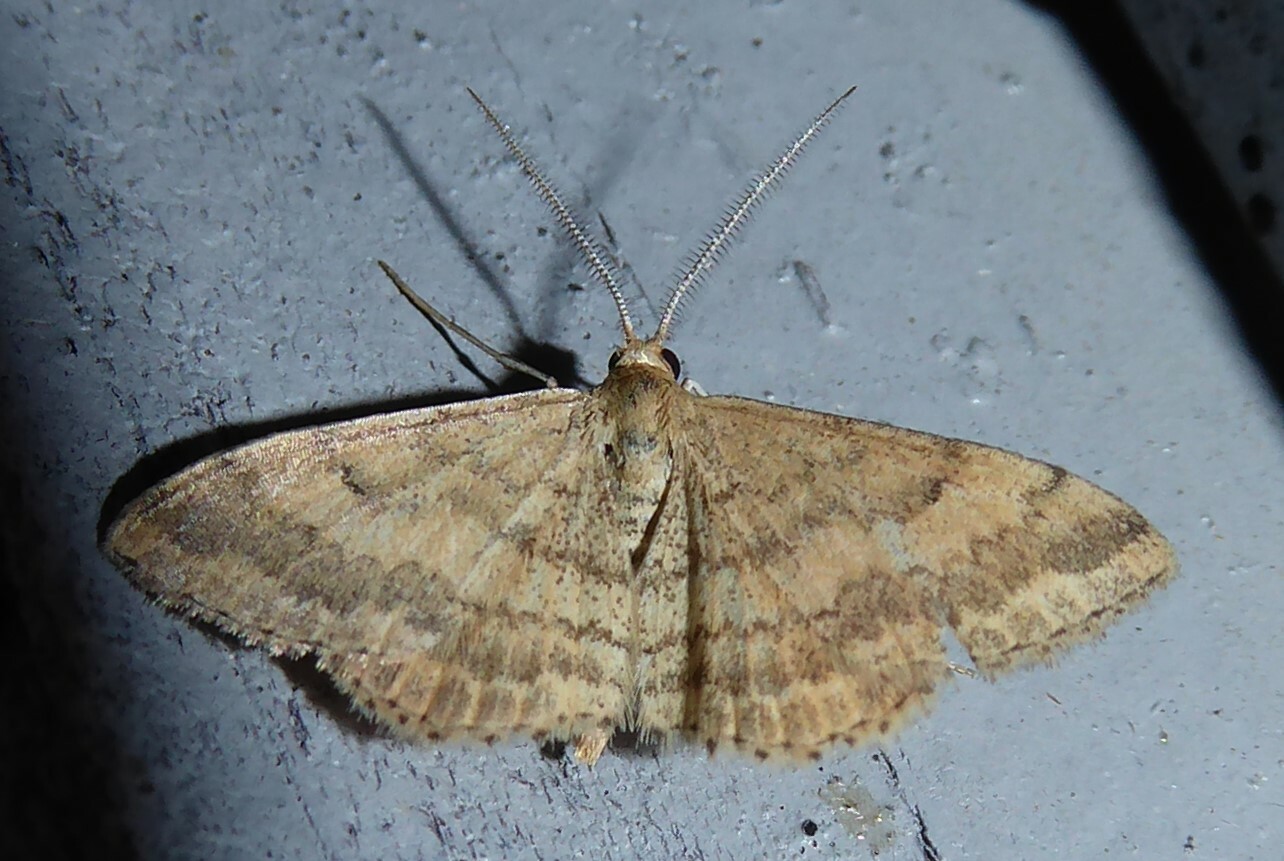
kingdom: Animalia
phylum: Arthropoda
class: Insecta
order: Lepidoptera
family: Geometridae
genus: Scopula
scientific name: Scopula rubraria
